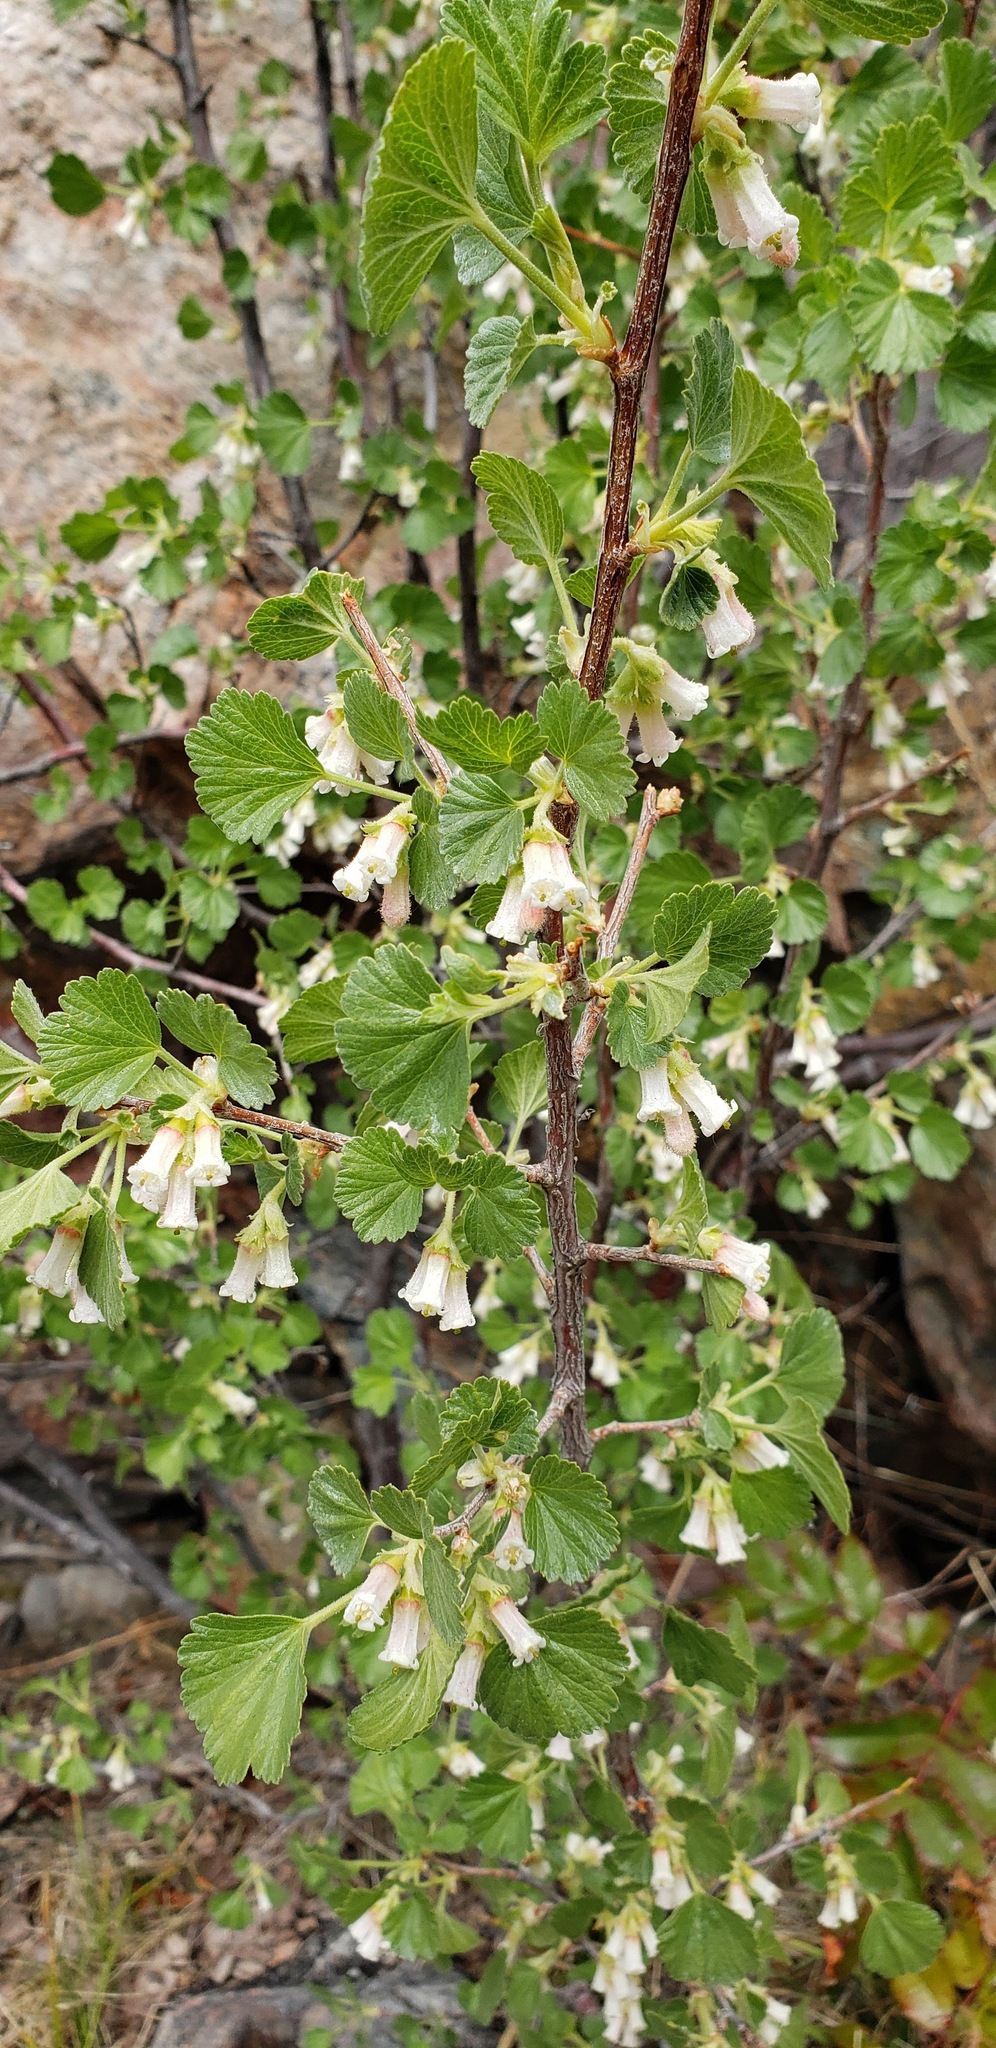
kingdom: Plantae
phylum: Tracheophyta
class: Magnoliopsida
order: Saxifragales
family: Grossulariaceae
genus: Ribes
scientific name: Ribes cereum
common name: Wax currant
